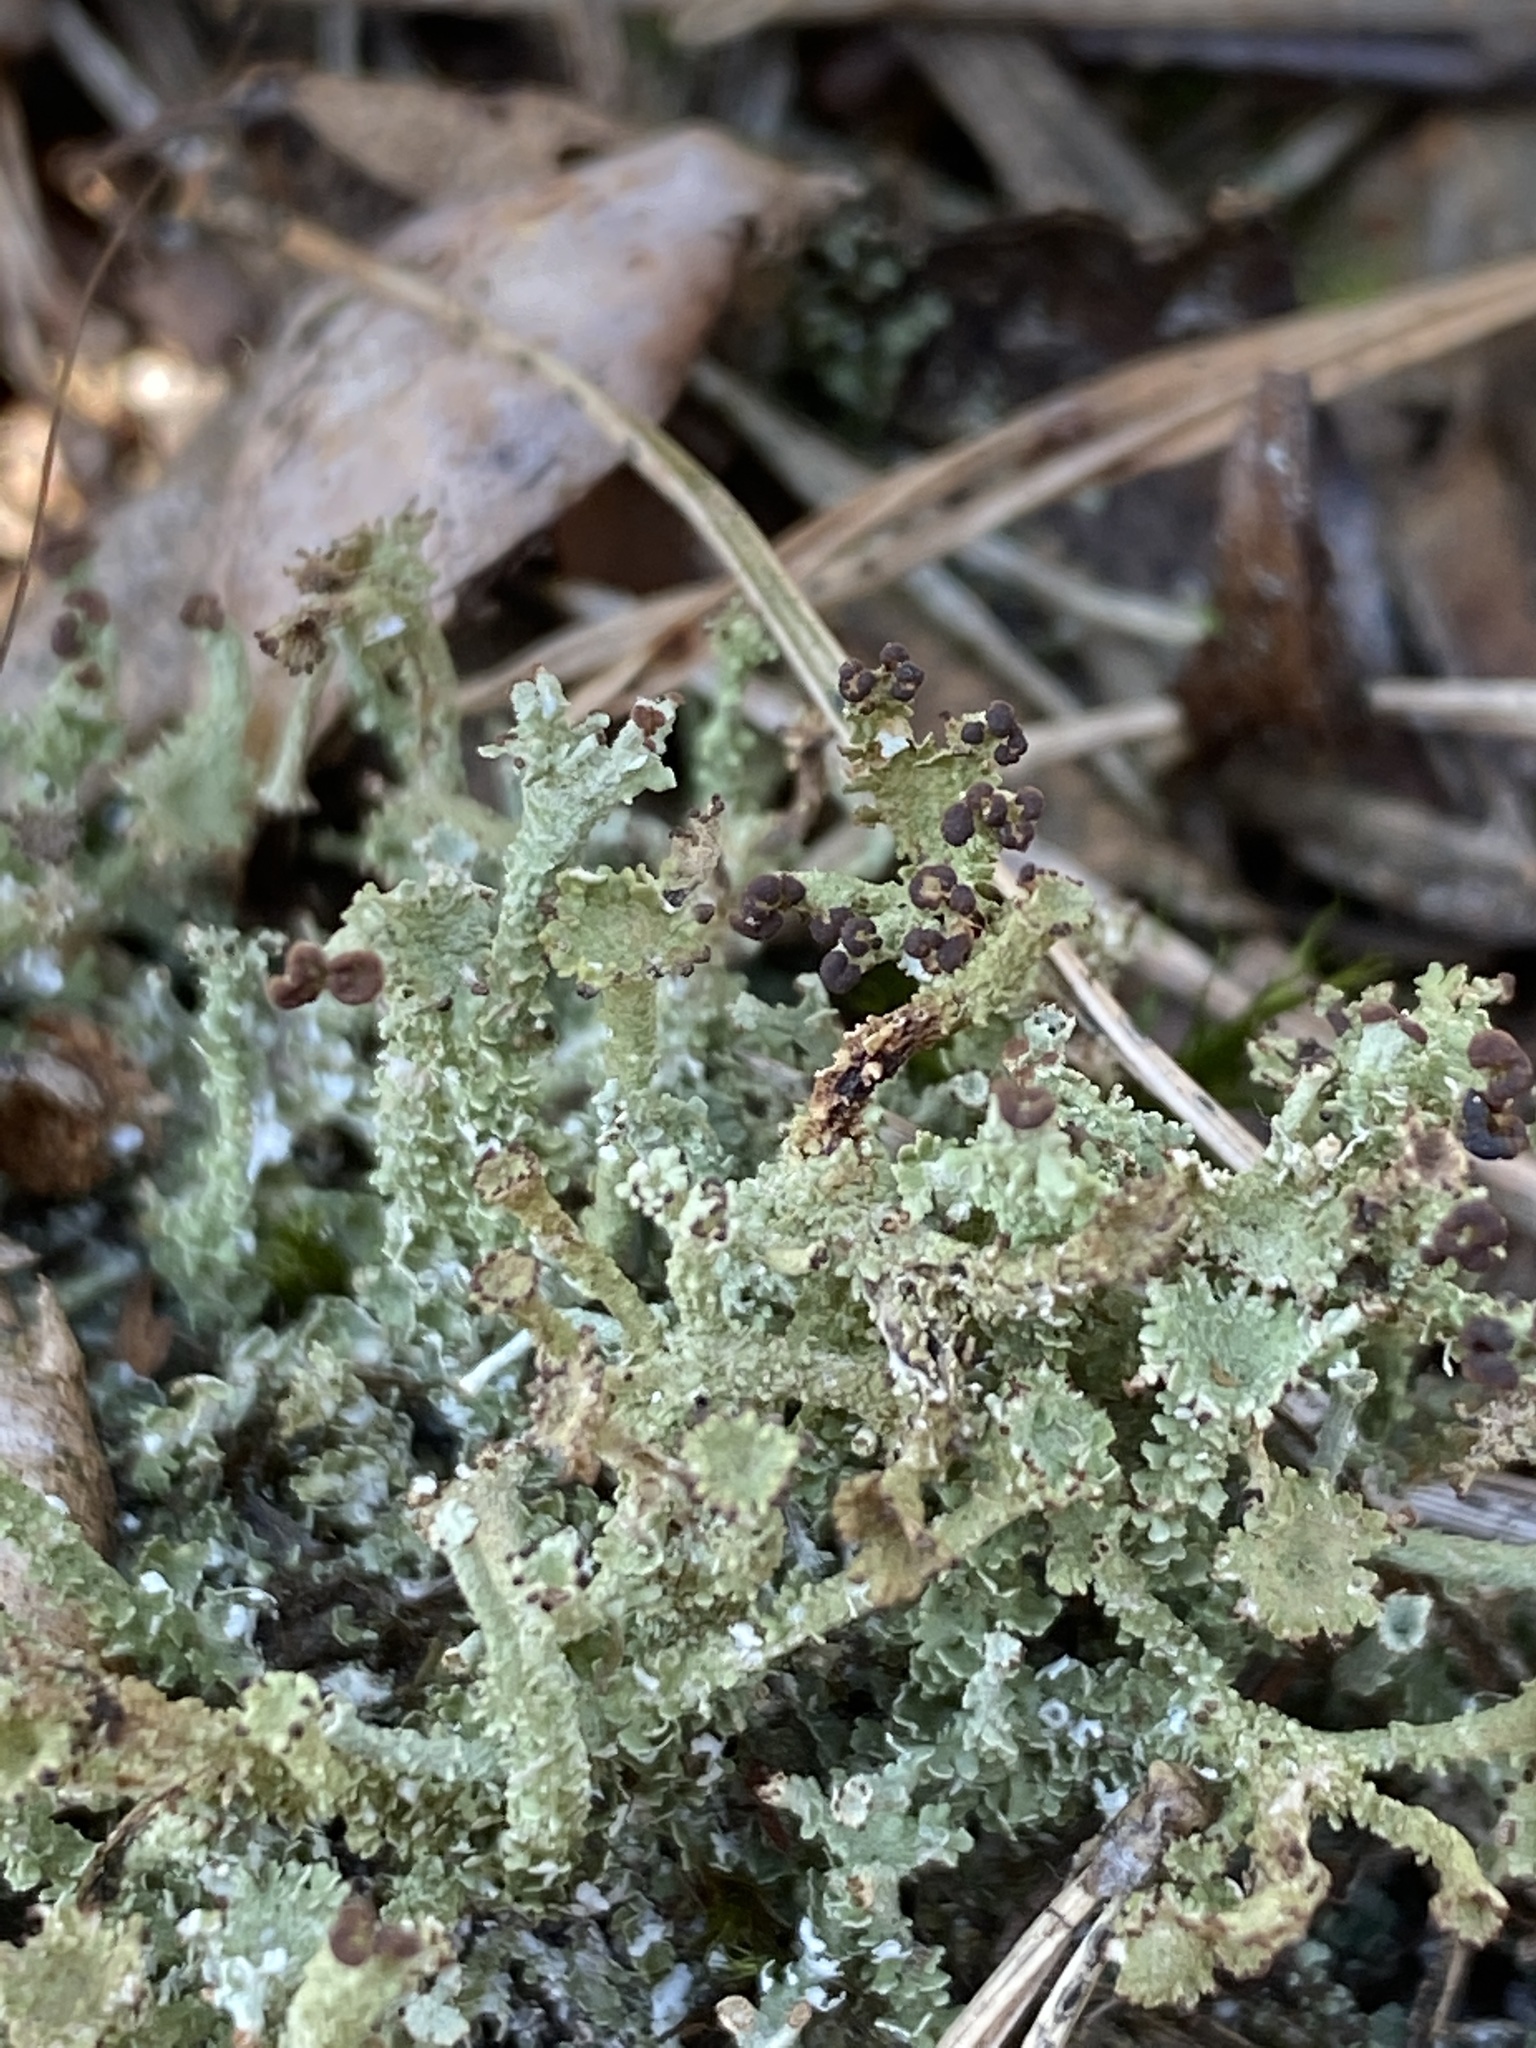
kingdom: Fungi
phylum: Ascomycota
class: Lecanoromycetes
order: Lecanorales
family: Cladoniaceae
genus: Cladonia
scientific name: Cladonia ramulosa
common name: Branched pixie-cup lichen
